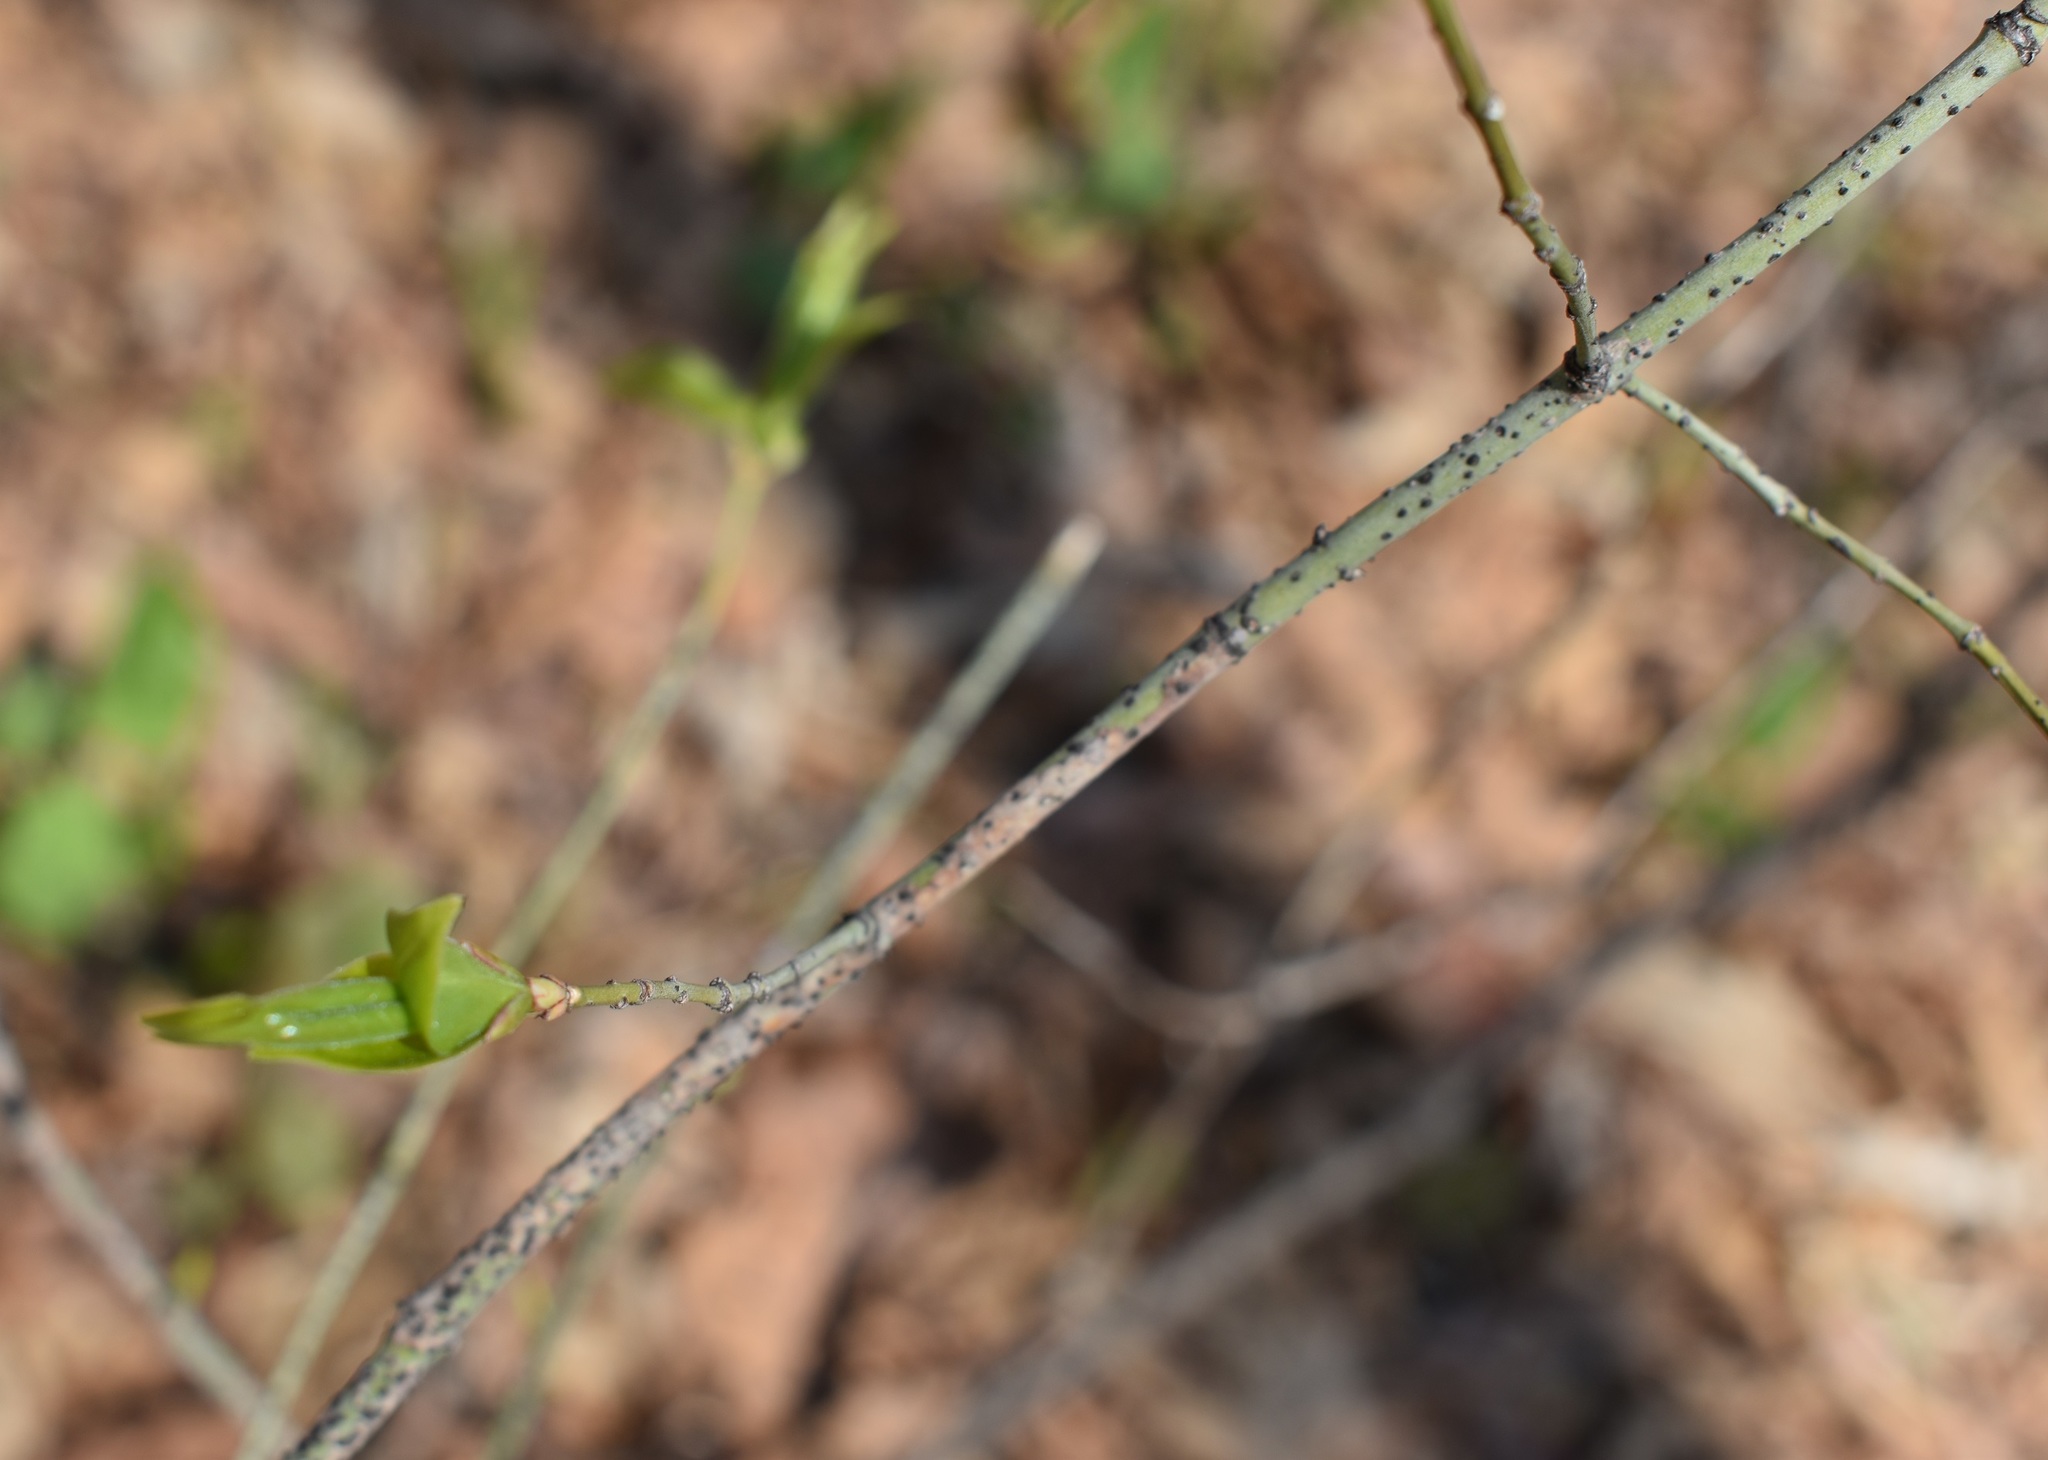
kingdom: Plantae
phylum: Tracheophyta
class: Magnoliopsida
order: Celastrales
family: Celastraceae
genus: Euonymus
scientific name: Euonymus verrucosus
